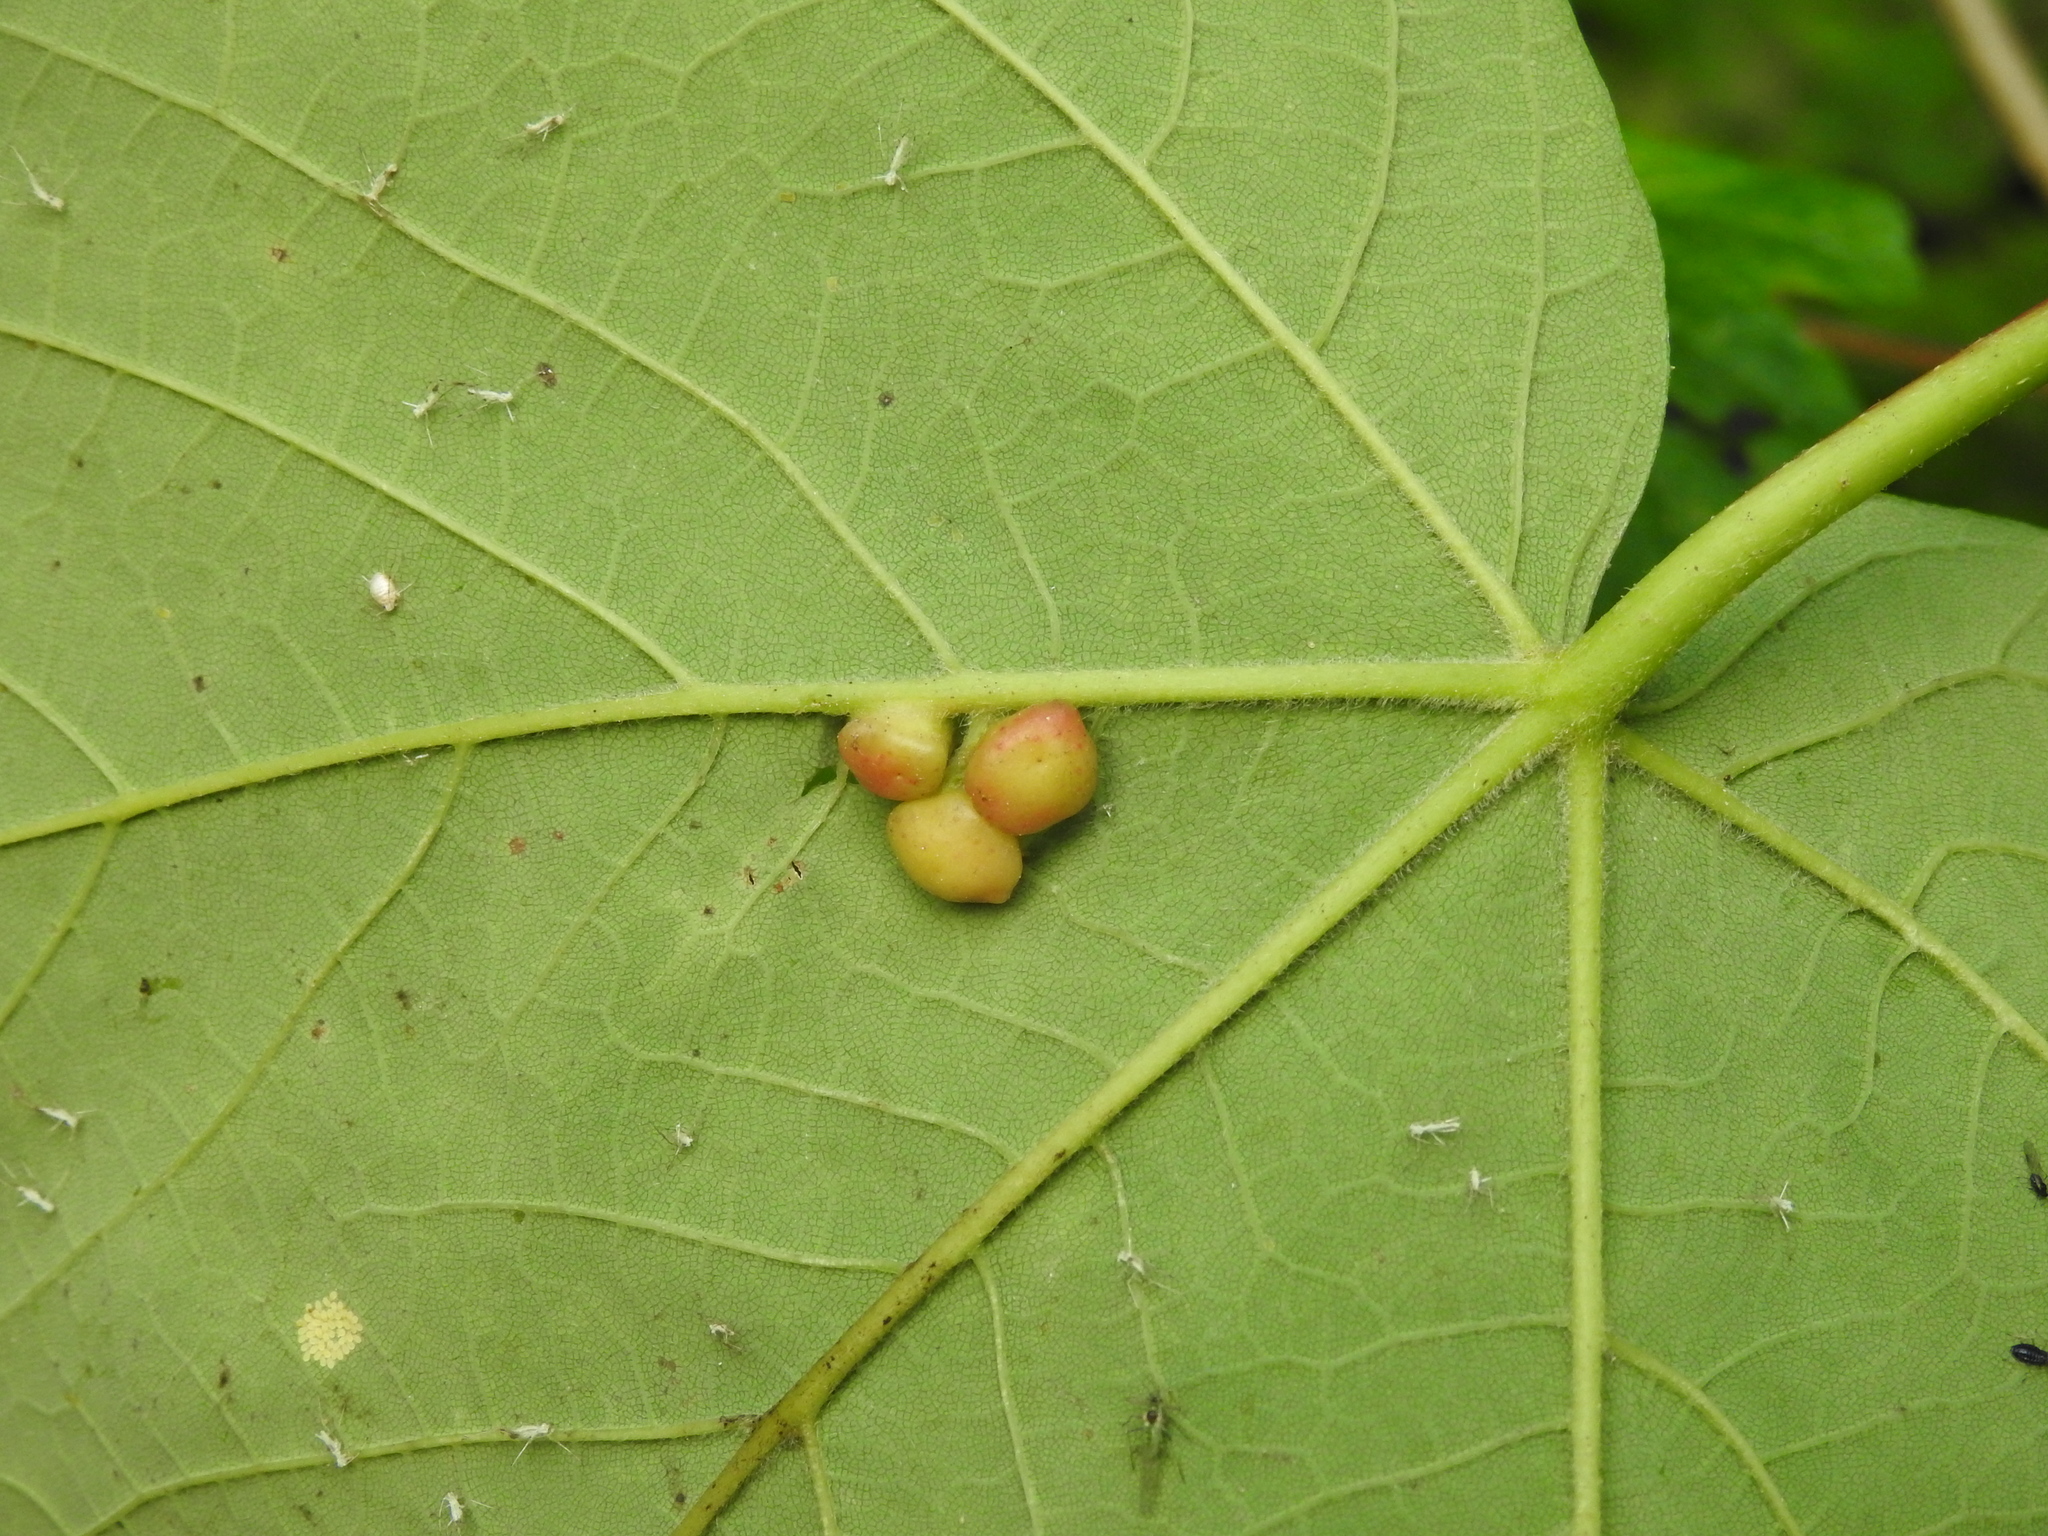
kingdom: Animalia
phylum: Arthropoda
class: Insecta
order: Hymenoptera
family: Cynipidae
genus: Pediaspis
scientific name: Pediaspis aceris
